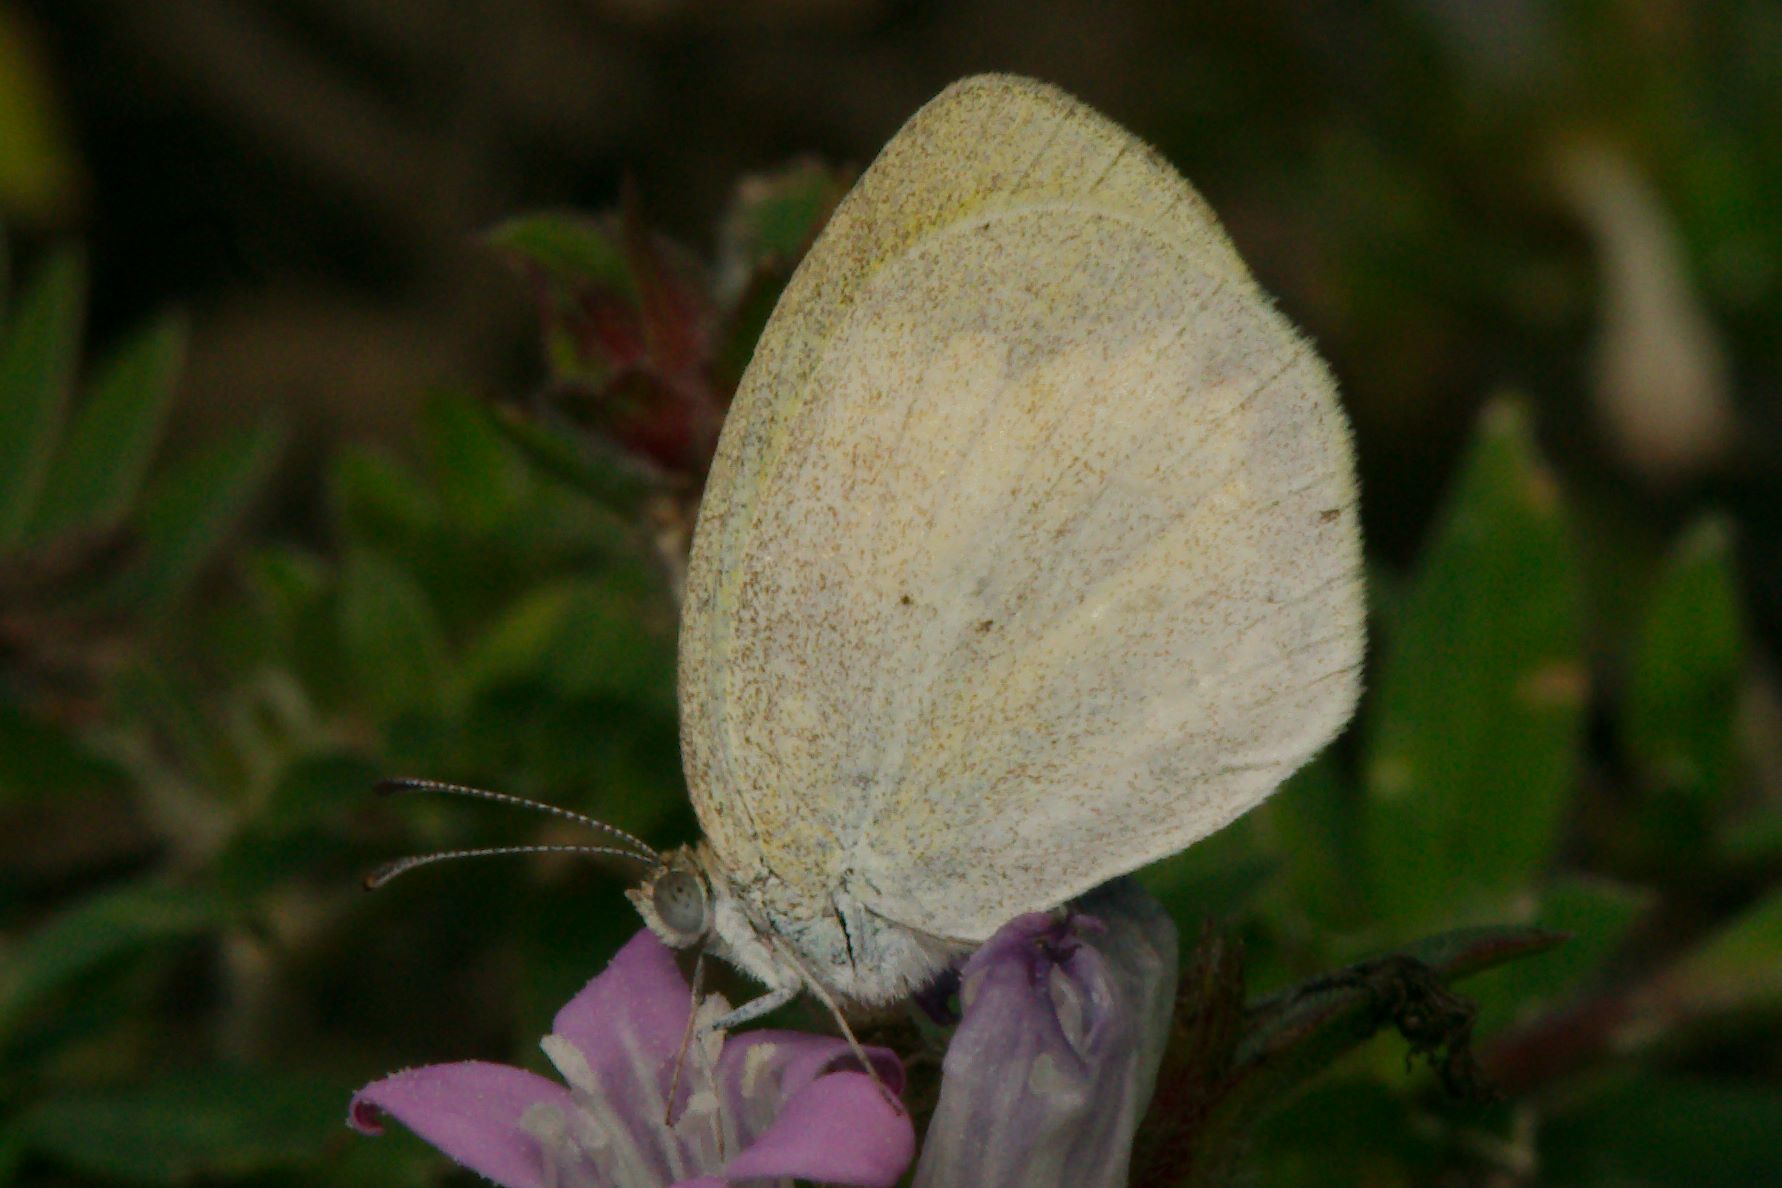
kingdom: Animalia
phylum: Arthropoda
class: Insecta
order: Lepidoptera
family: Pieridae
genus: Eurema
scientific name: Eurema daira
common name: Barred sulphur
